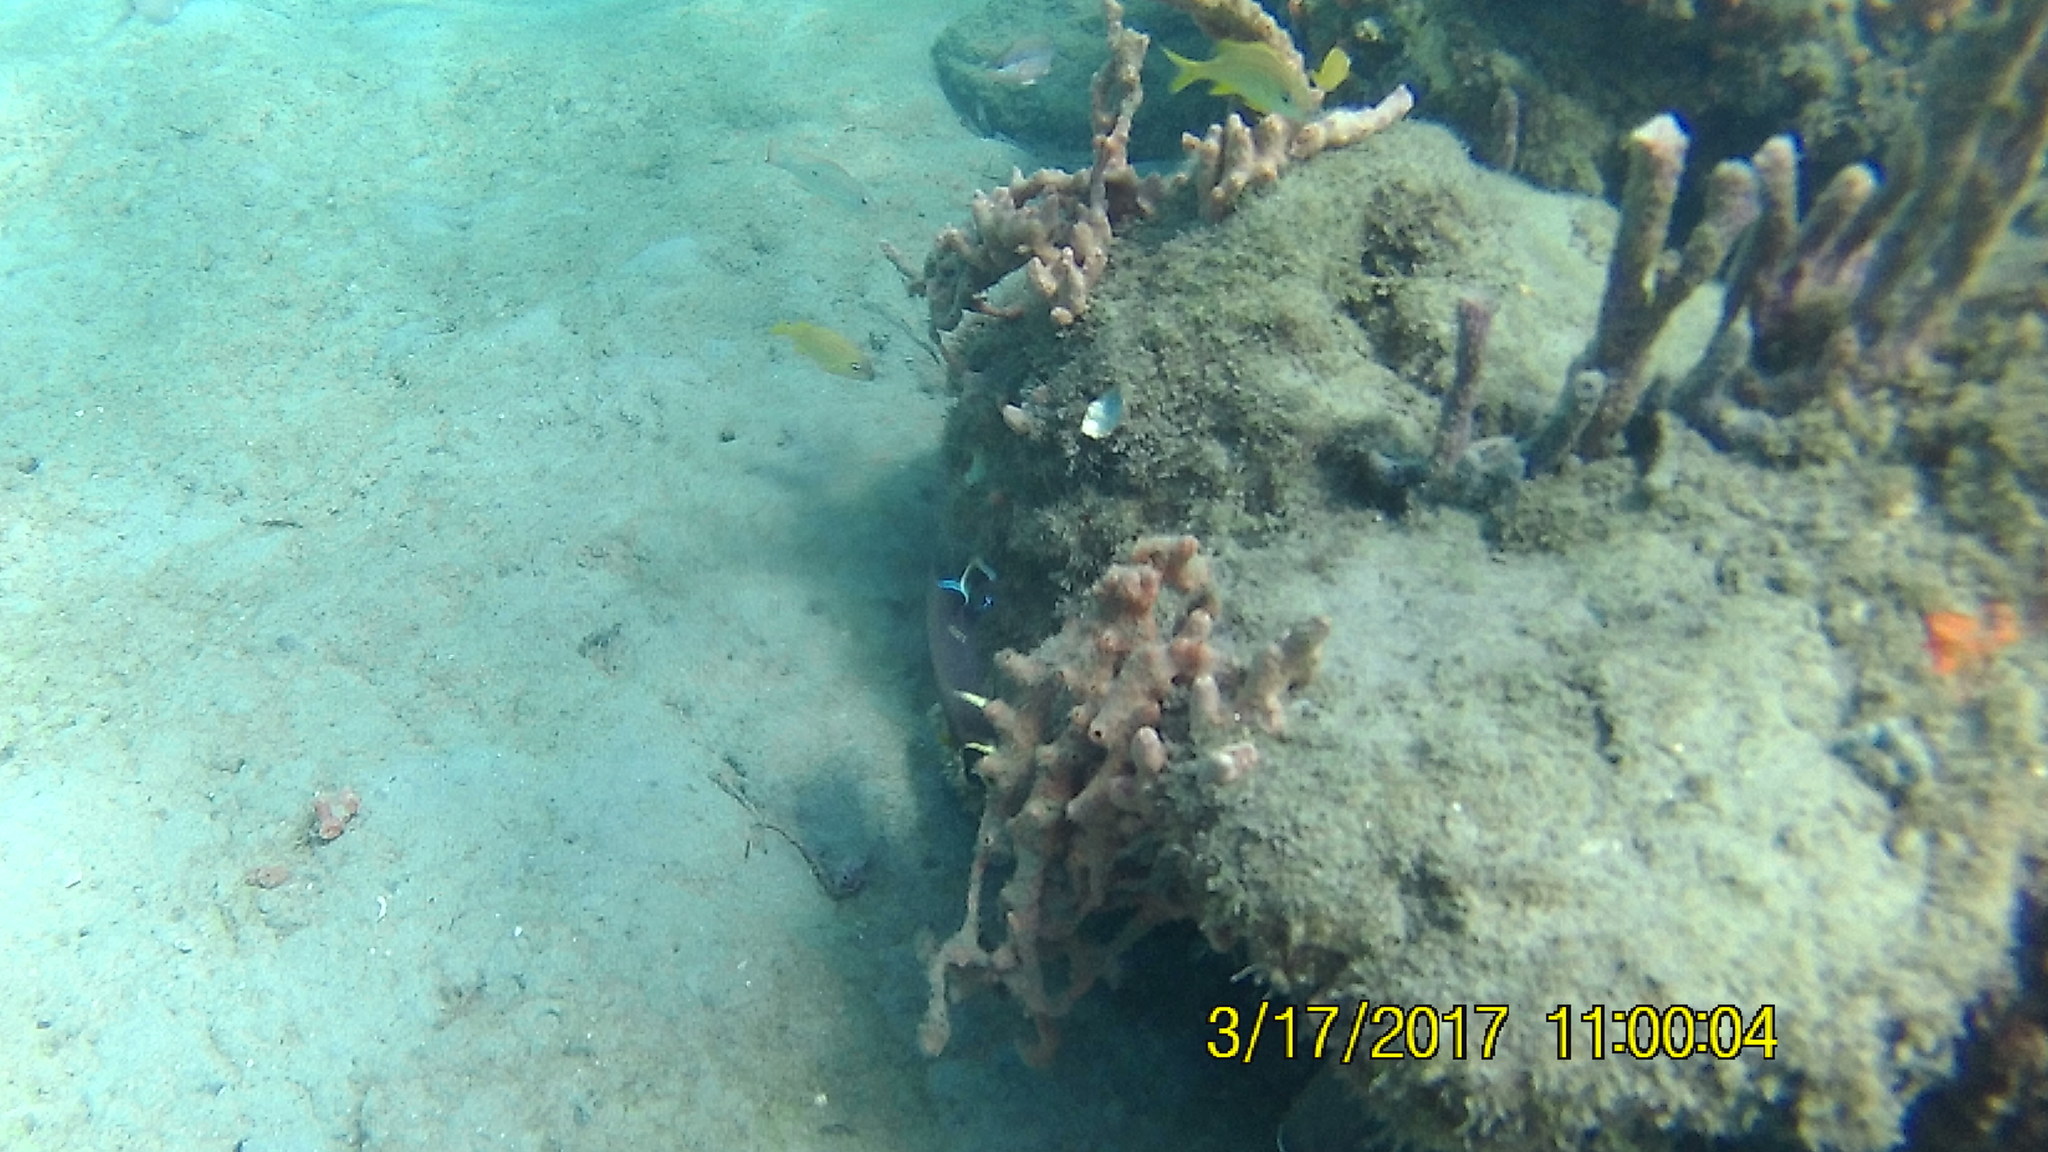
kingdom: Animalia
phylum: Chordata
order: Perciformes
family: Pomacanthidae
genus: Pomacanthus
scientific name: Pomacanthus arcuatus
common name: Gray angelfish
